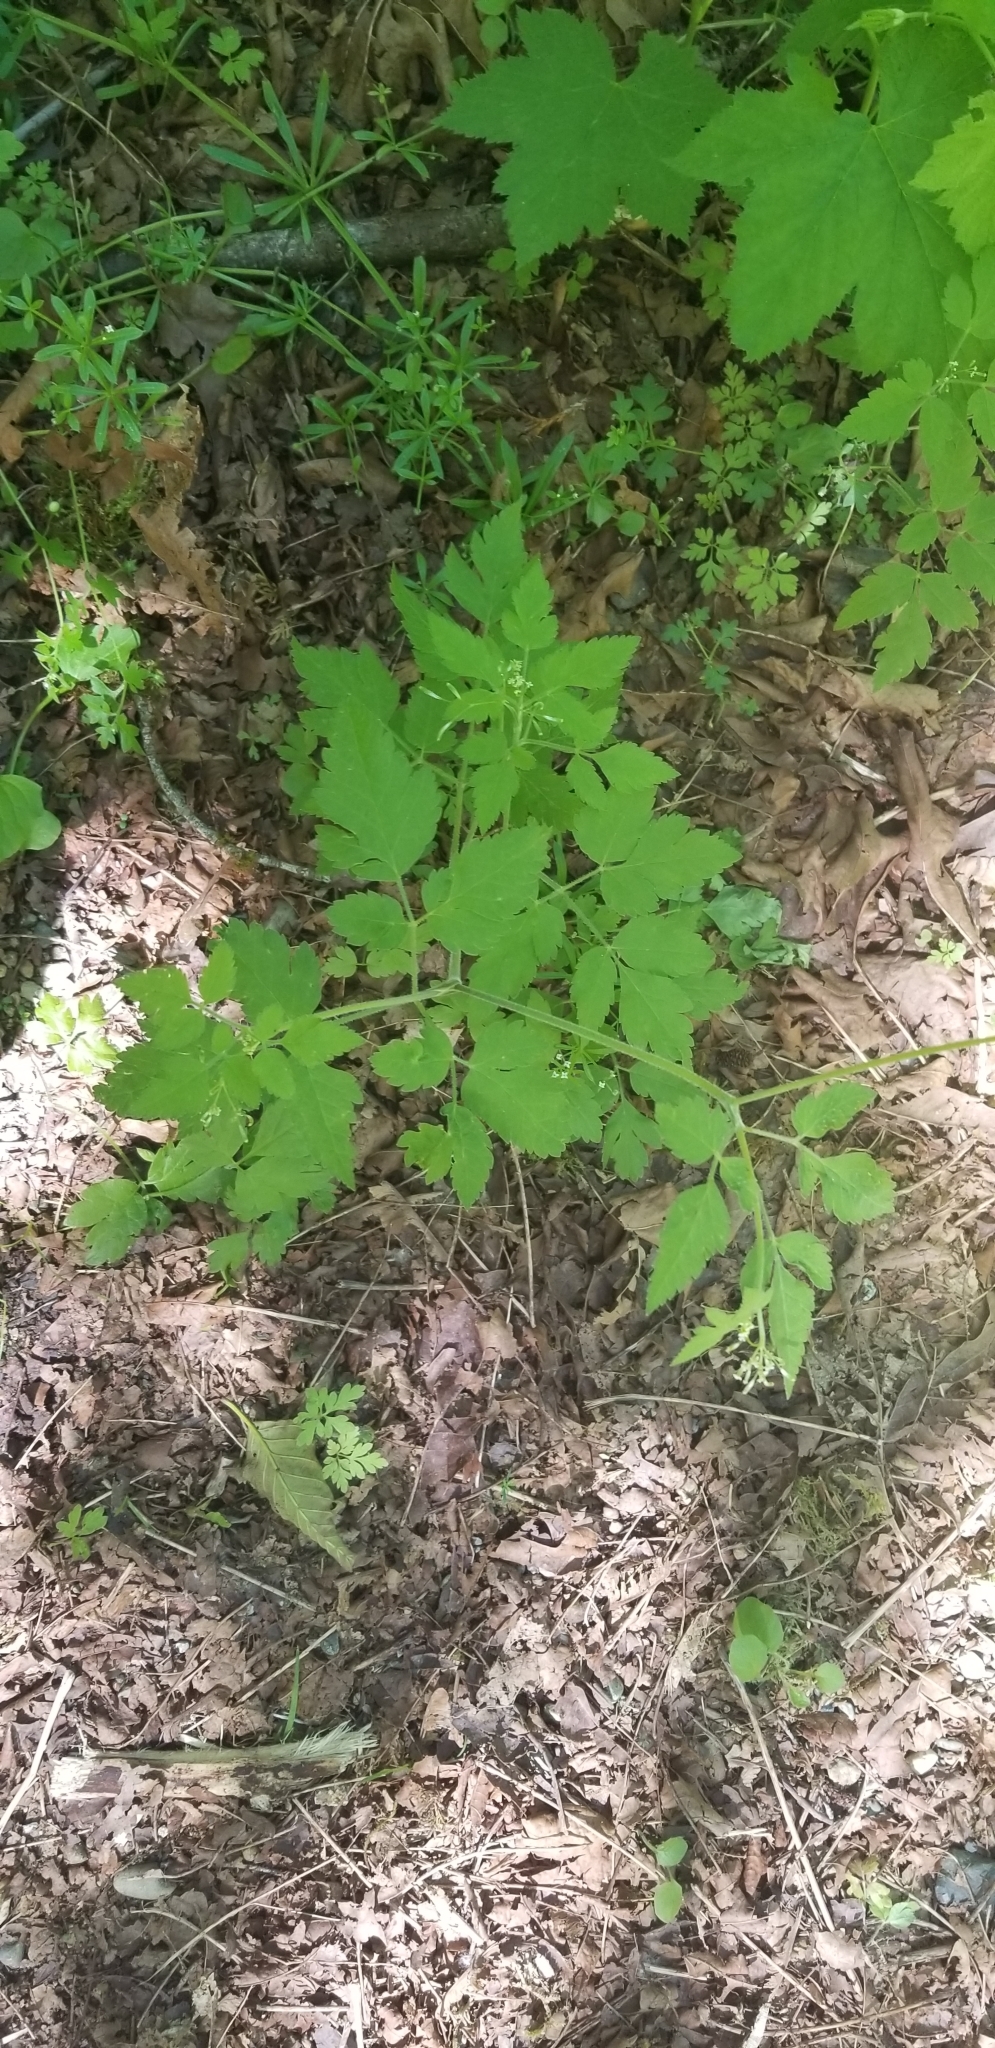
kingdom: Plantae
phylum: Tracheophyta
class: Magnoliopsida
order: Apiales
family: Apiaceae
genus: Osmorhiza
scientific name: Osmorhiza berteroi
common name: Mountain sweet cicely
